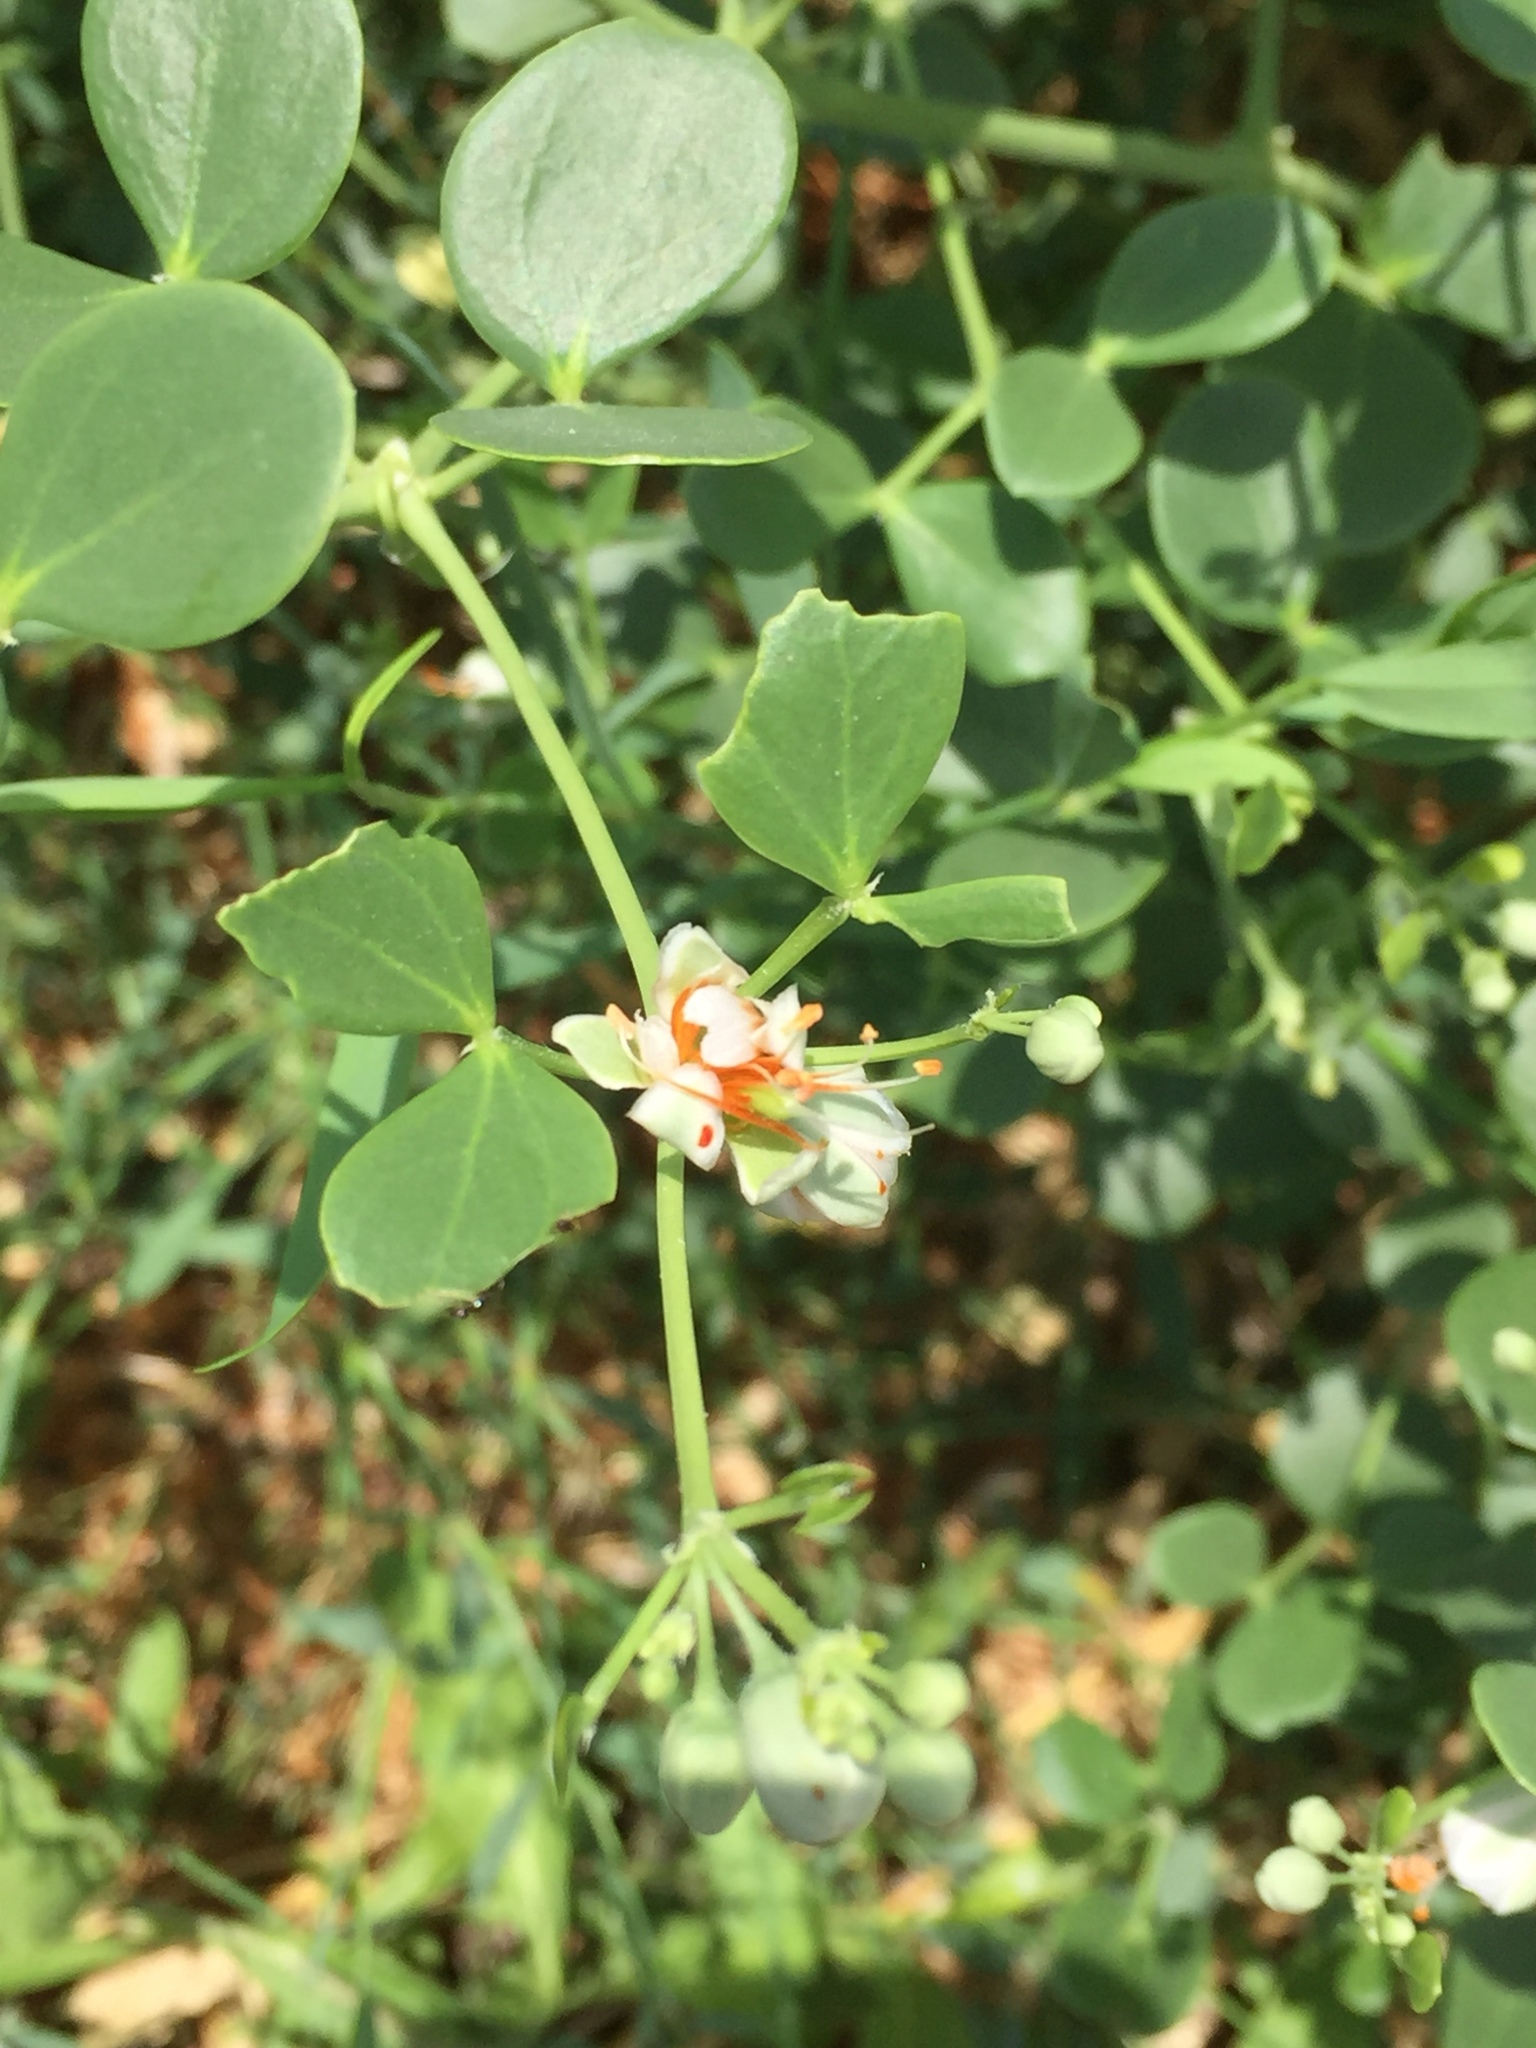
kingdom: Plantae
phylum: Tracheophyta
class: Magnoliopsida
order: Zygophyllales
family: Zygophyllaceae
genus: Zygophyllum
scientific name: Zygophyllum fabago
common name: Syrian beancaper
